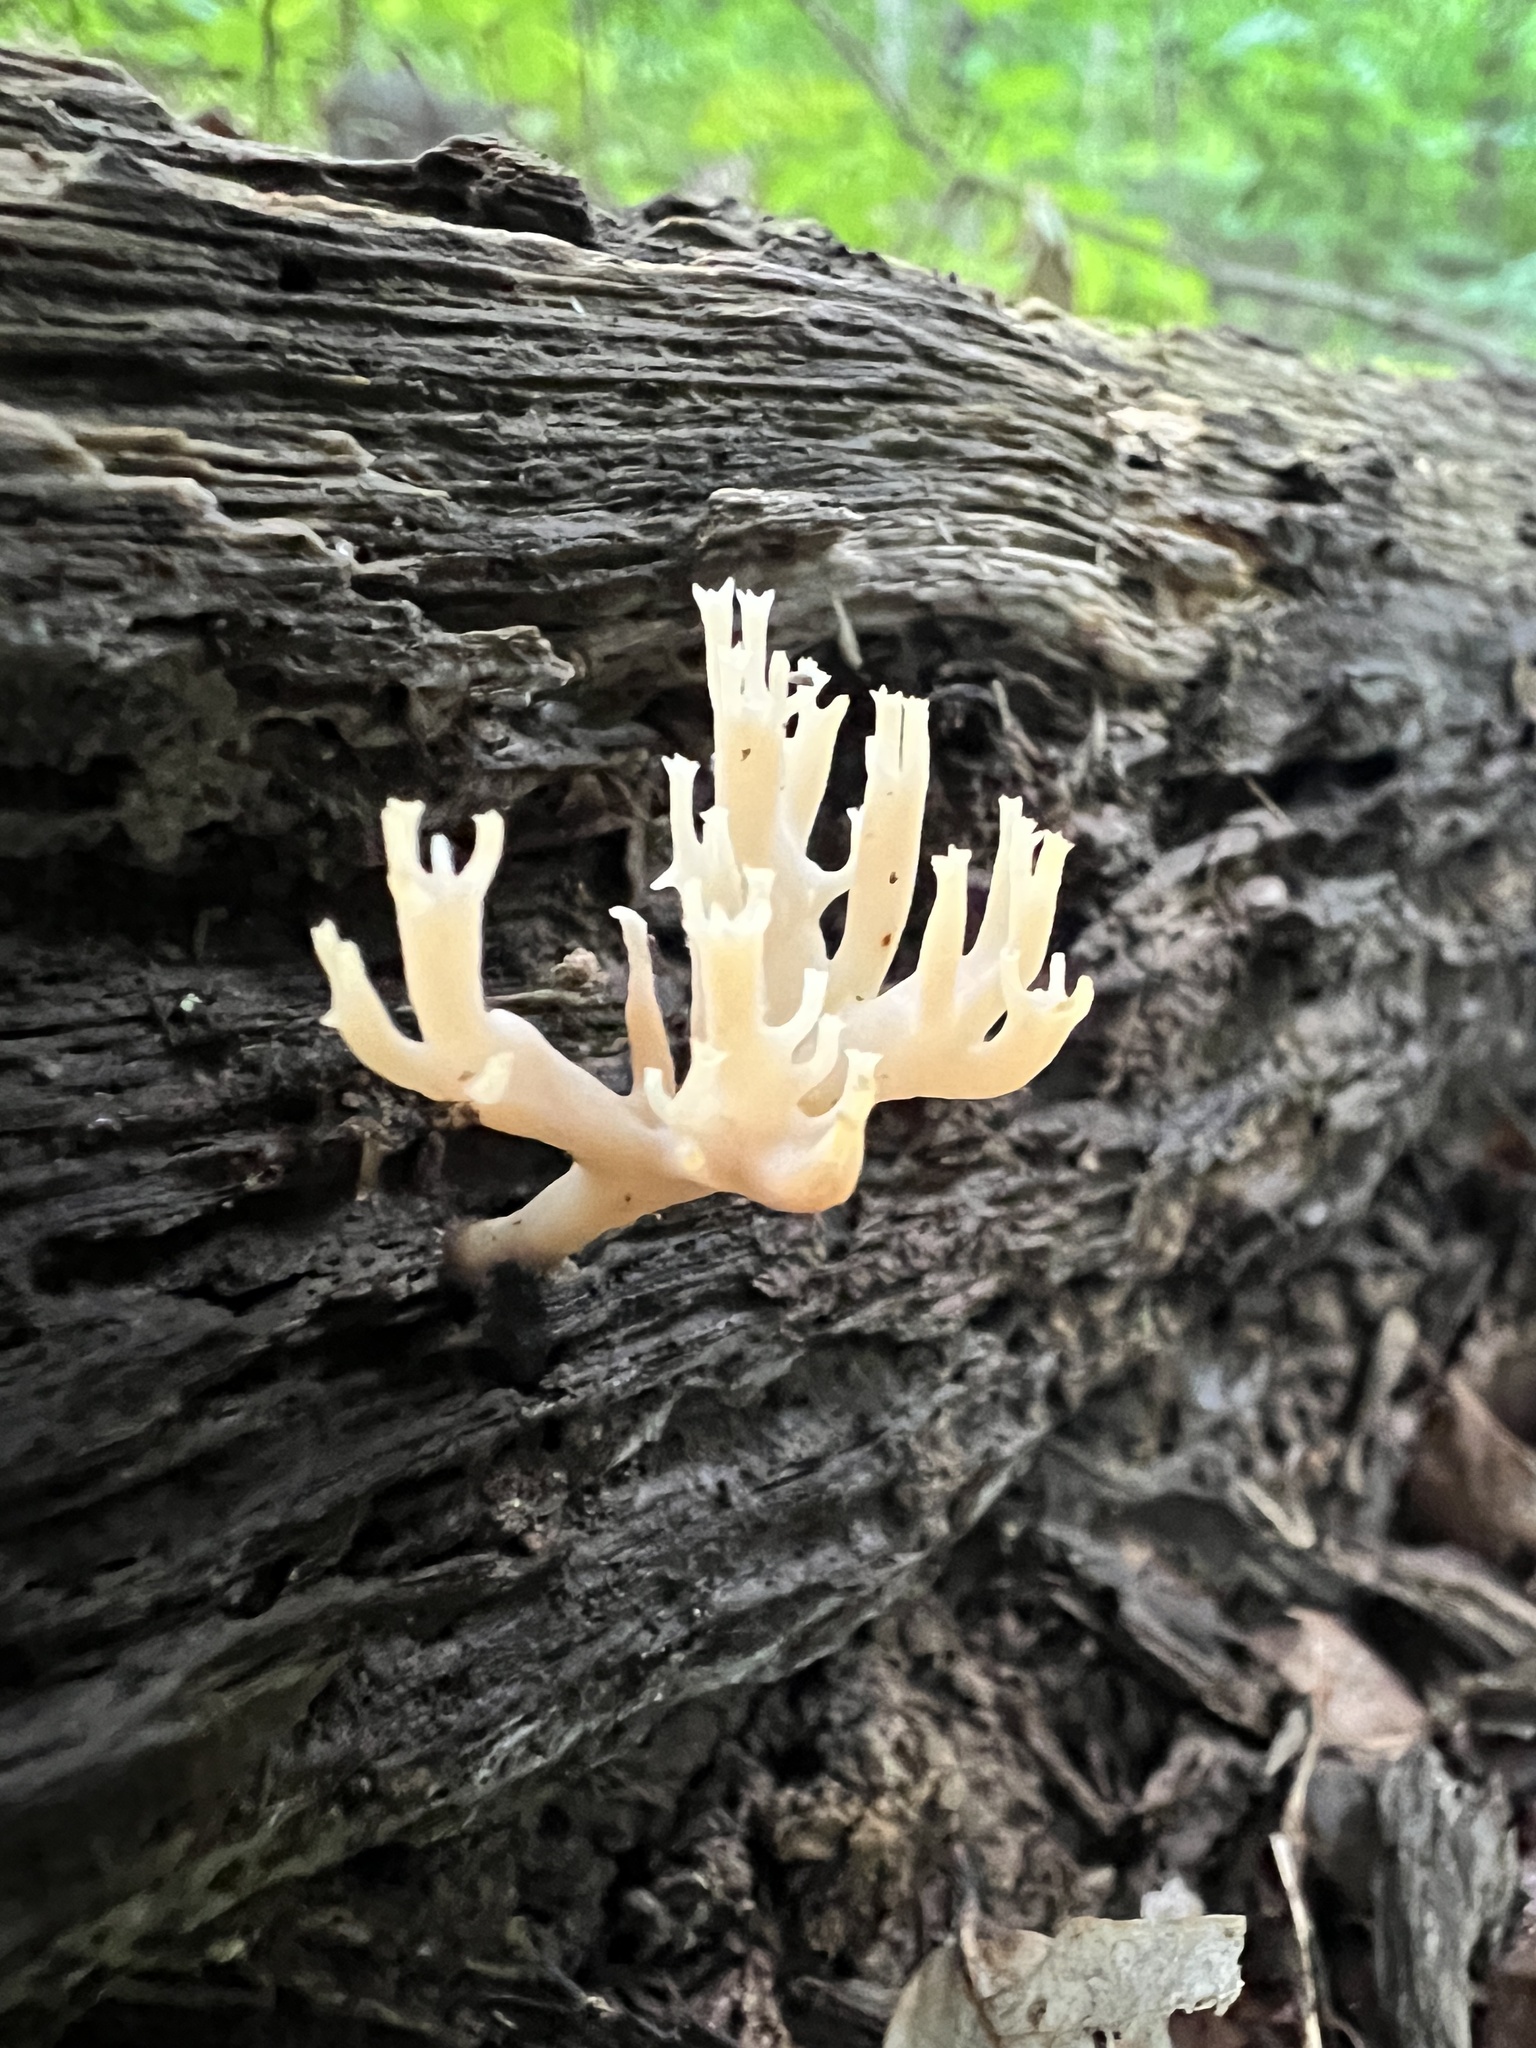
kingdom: Fungi
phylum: Basidiomycota
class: Agaricomycetes
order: Russulales
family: Auriscalpiaceae
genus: Artomyces
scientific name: Artomyces pyxidatus
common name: Crown-tipped coral fungus
